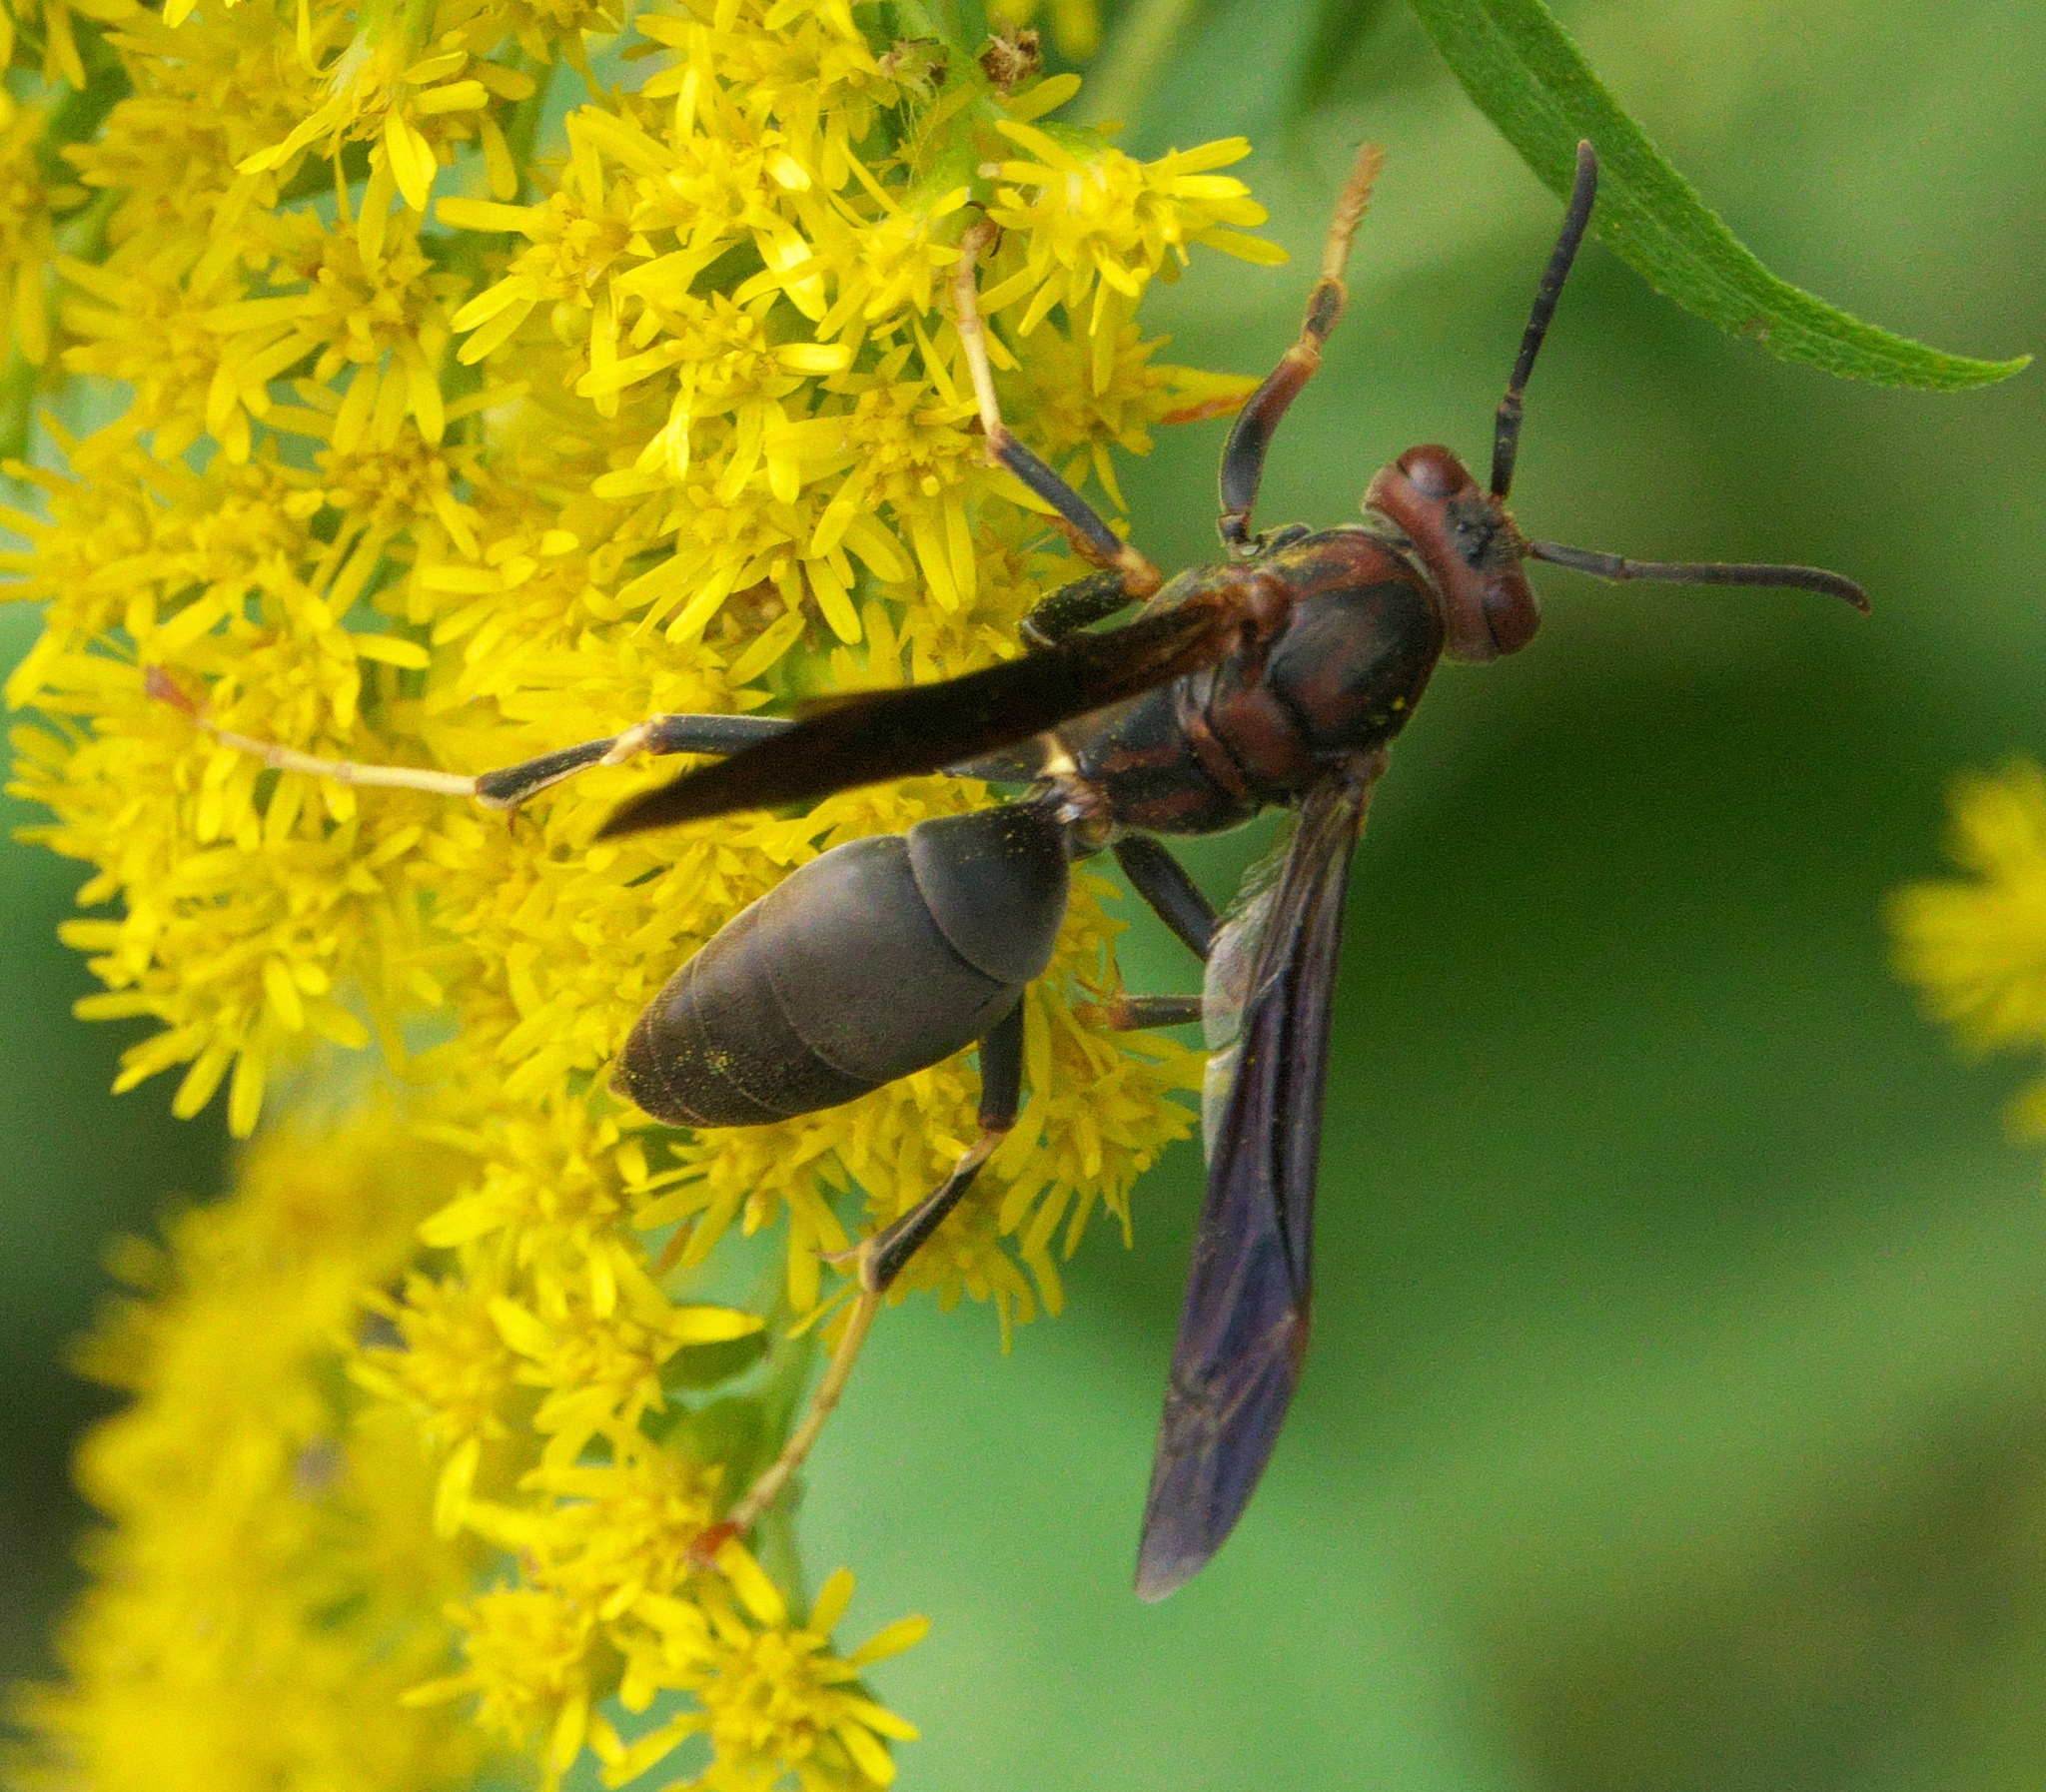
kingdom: Animalia
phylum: Arthropoda
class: Insecta
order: Hymenoptera
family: Eumenidae
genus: Polistes
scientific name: Polistes metricus
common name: Metric paper wasp
